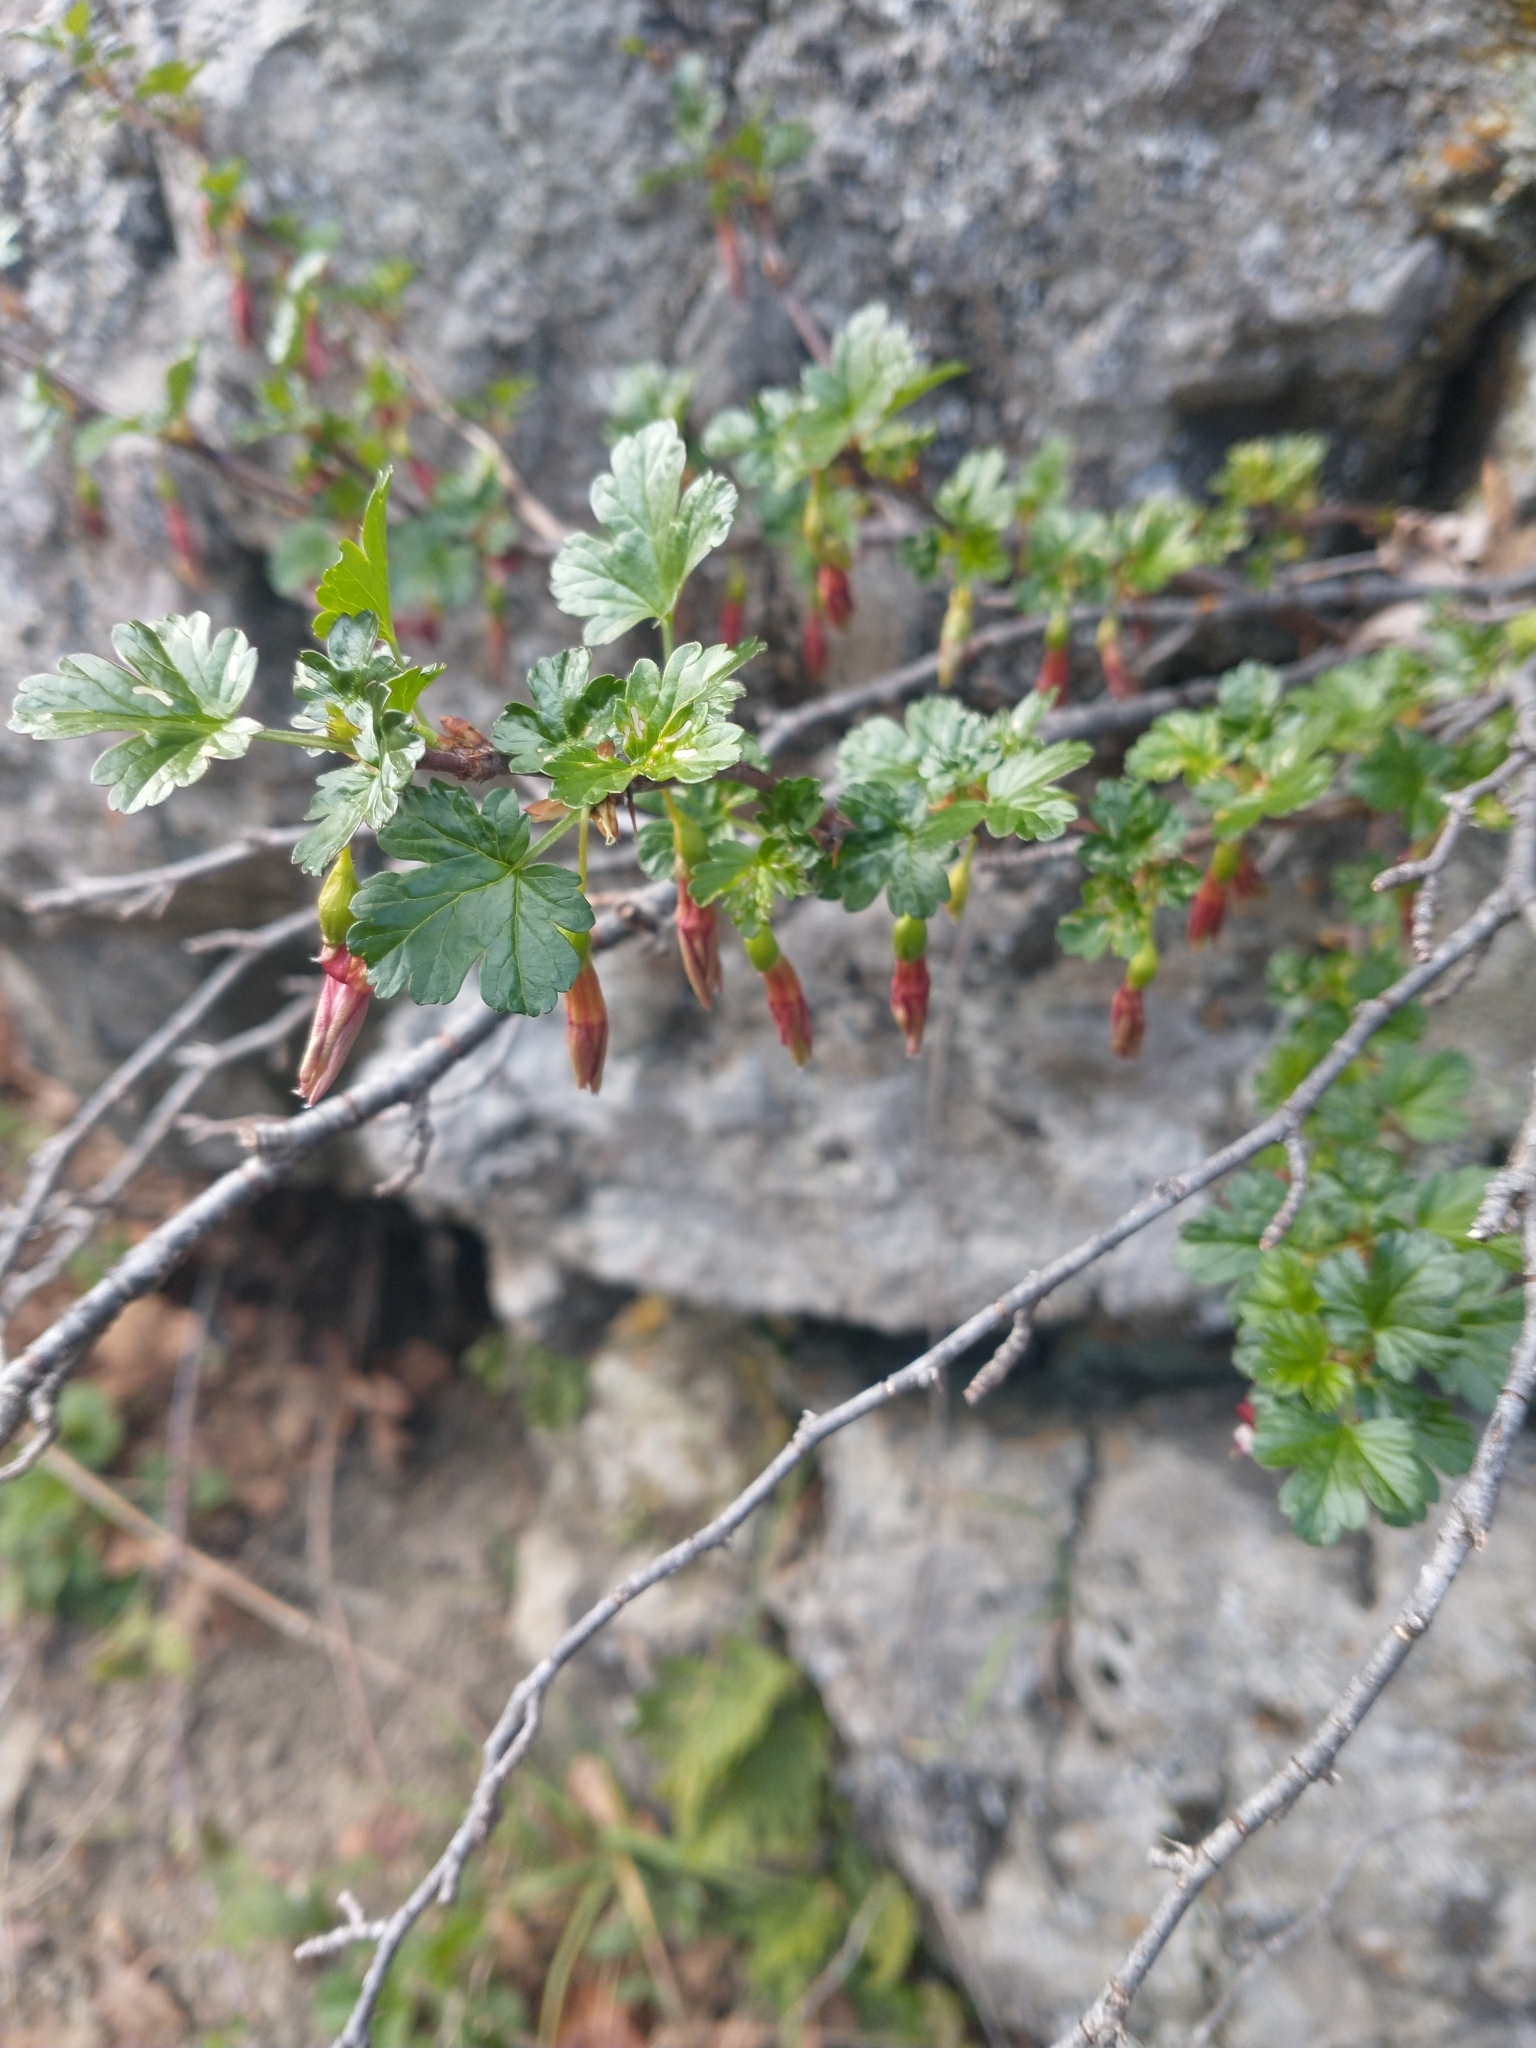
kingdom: Plantae
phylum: Tracheophyta
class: Magnoliopsida
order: Saxifragales
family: Grossulariaceae
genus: Ribes
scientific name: Ribes cruentum
